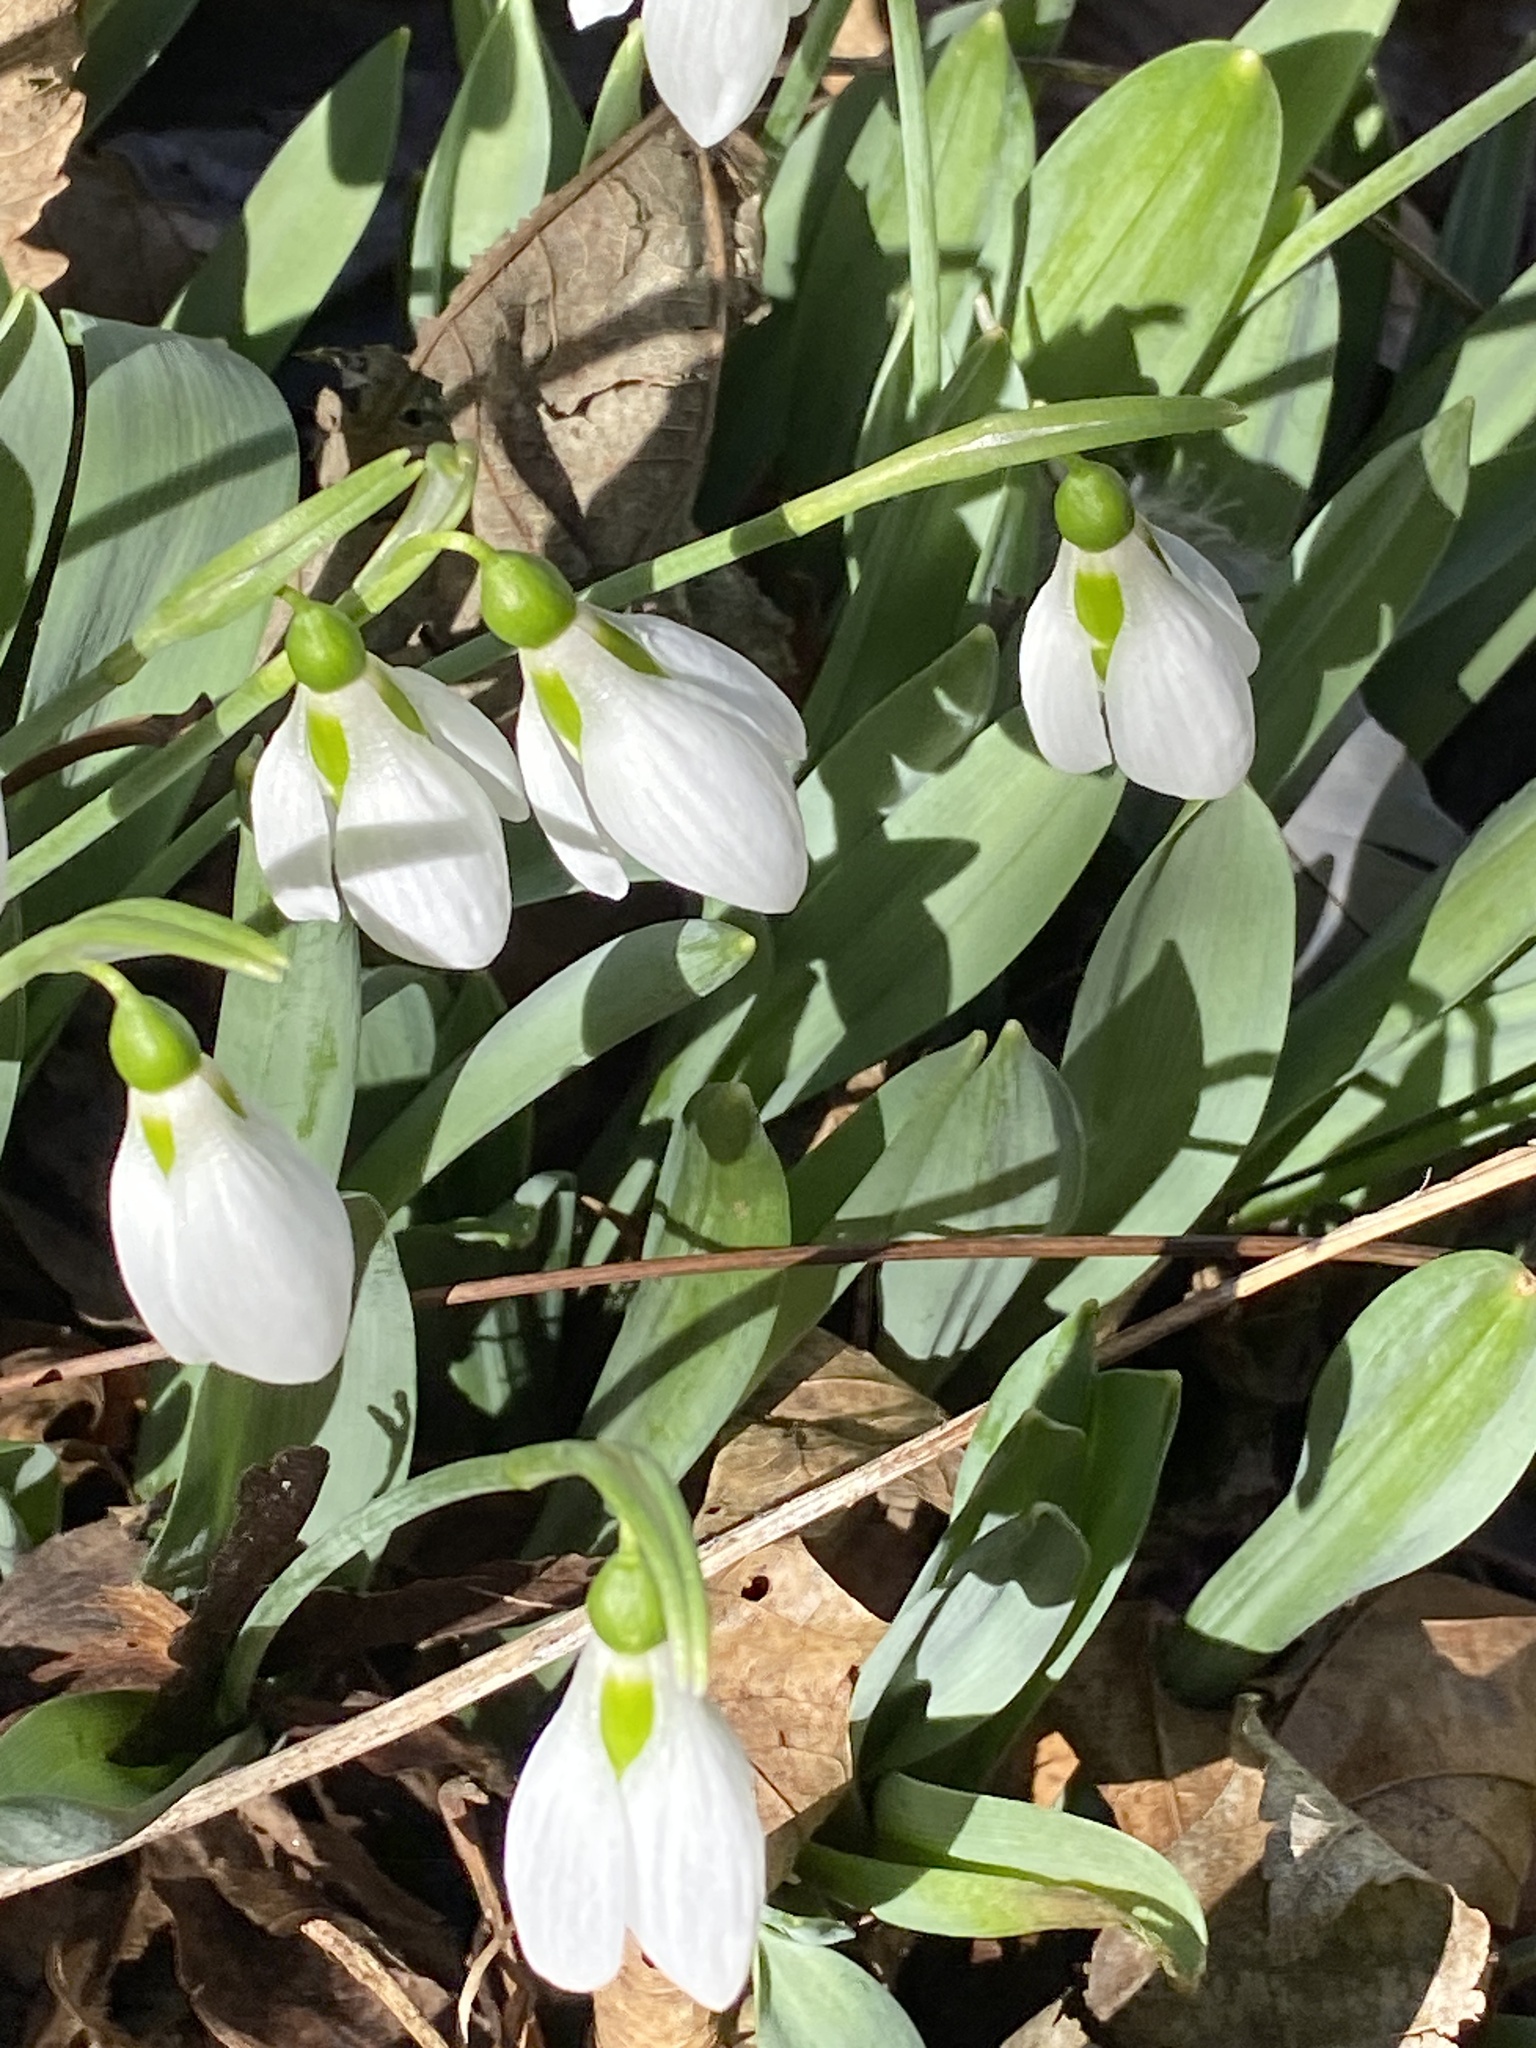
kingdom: Plantae
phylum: Tracheophyta
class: Liliopsida
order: Asparagales
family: Amaryllidaceae
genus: Galanthus
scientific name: Galanthus elwesii
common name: Greater snowdrop
